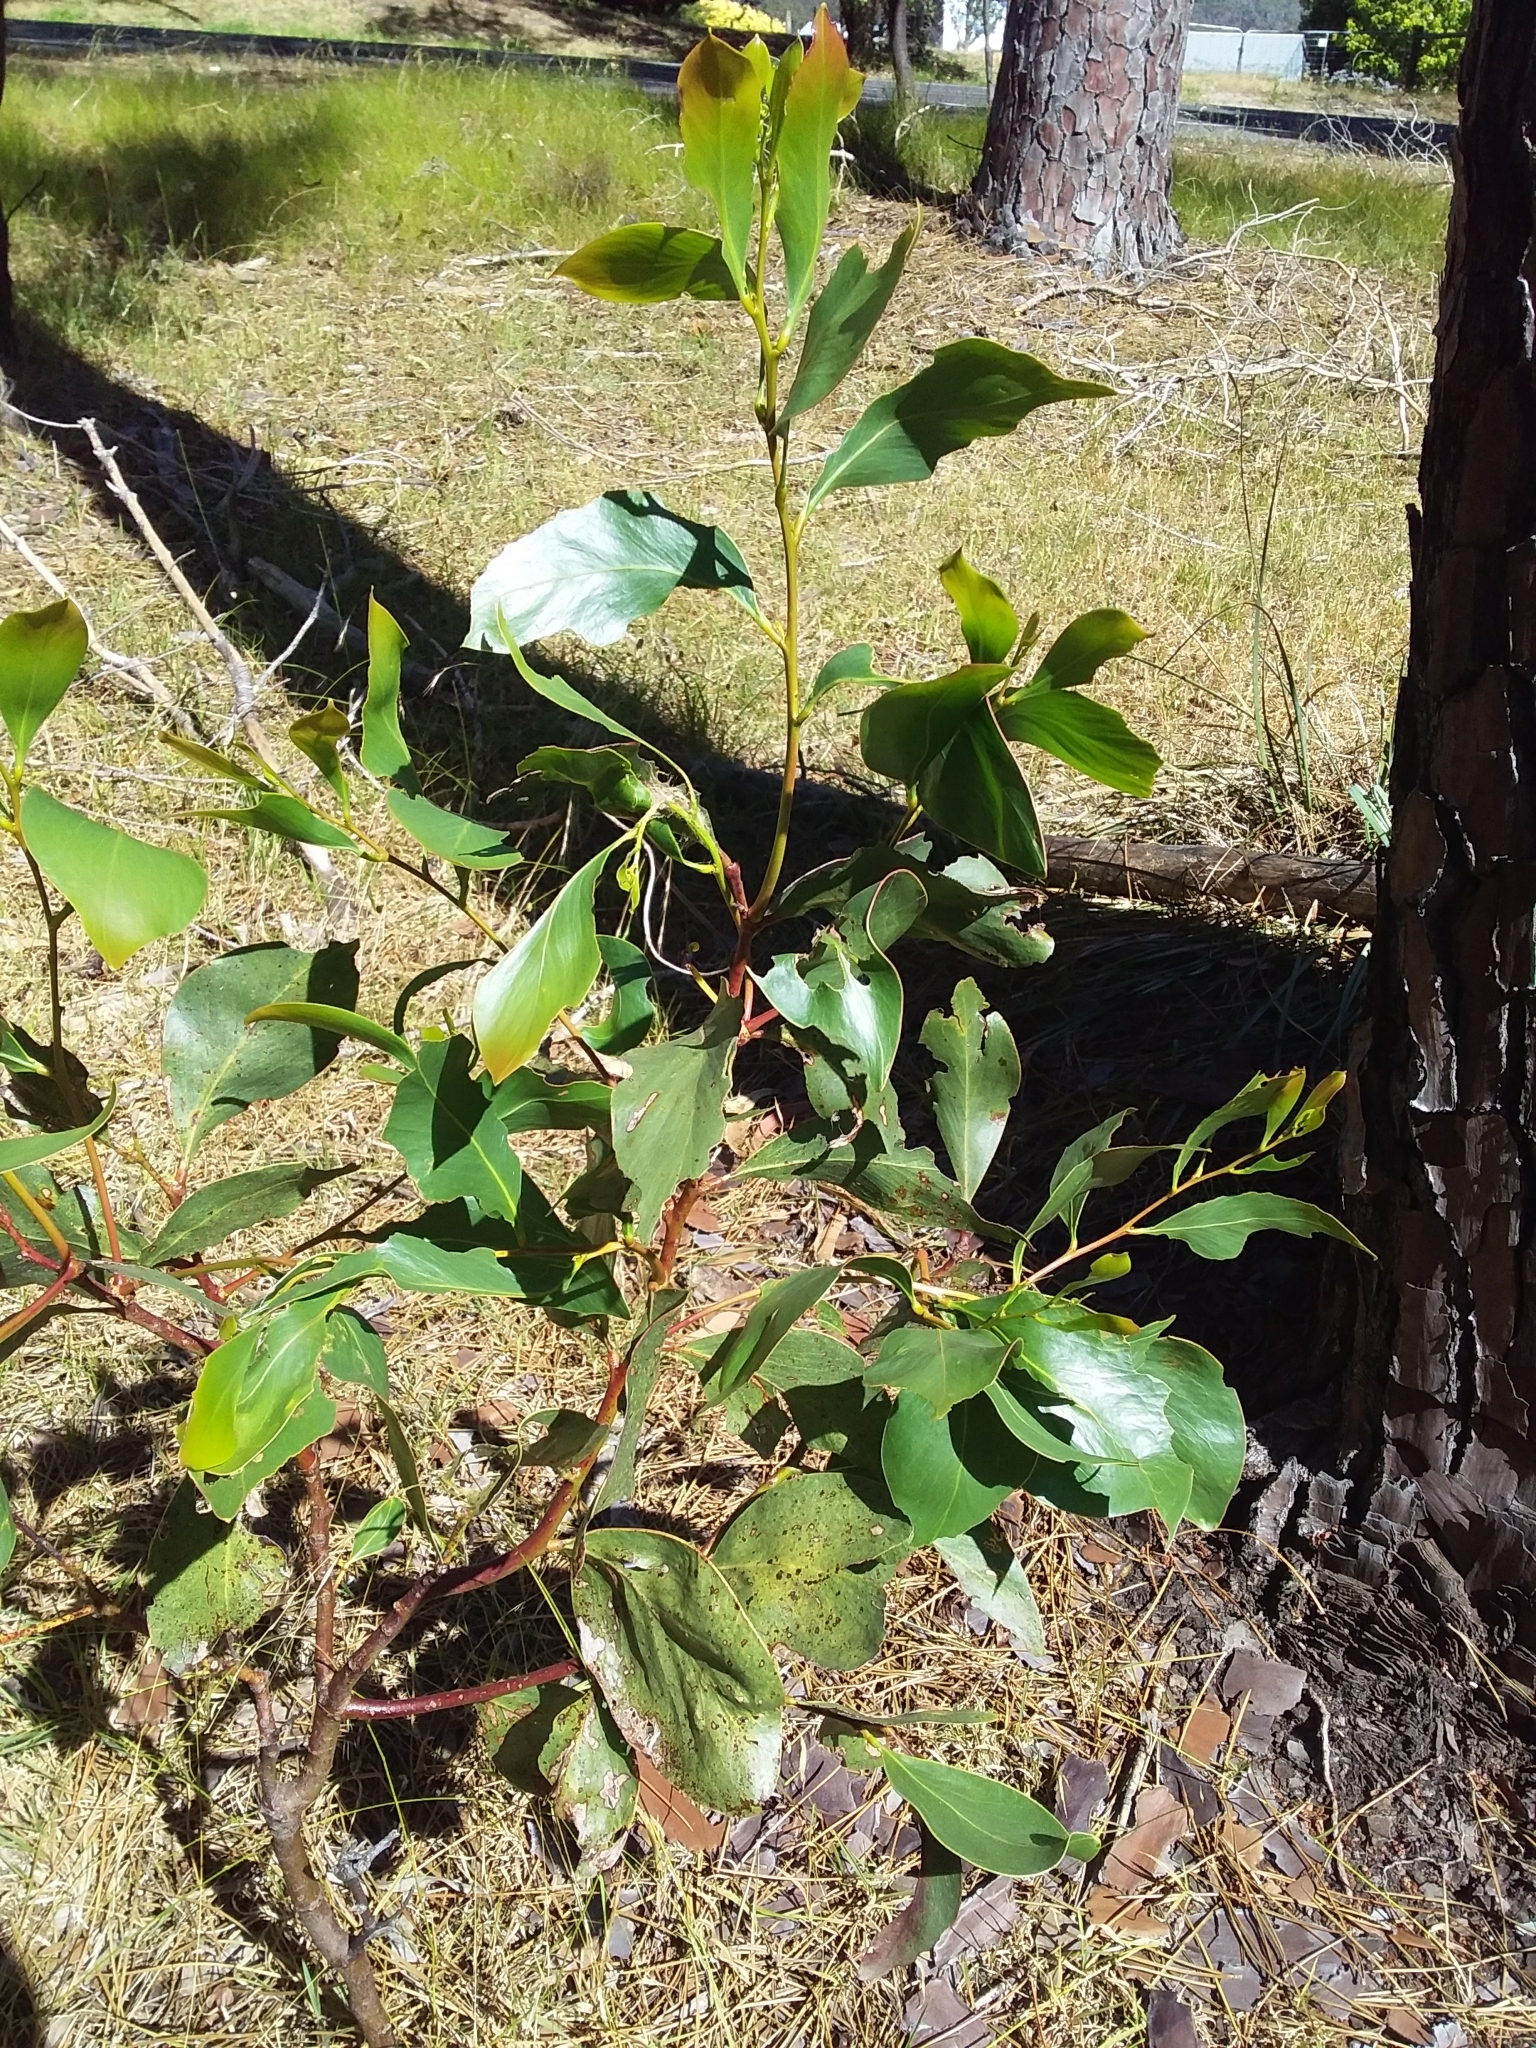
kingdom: Plantae
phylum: Tracheophyta
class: Magnoliopsida
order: Fabales
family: Fabaceae
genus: Acacia
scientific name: Acacia pycnantha
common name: Golden wattle
